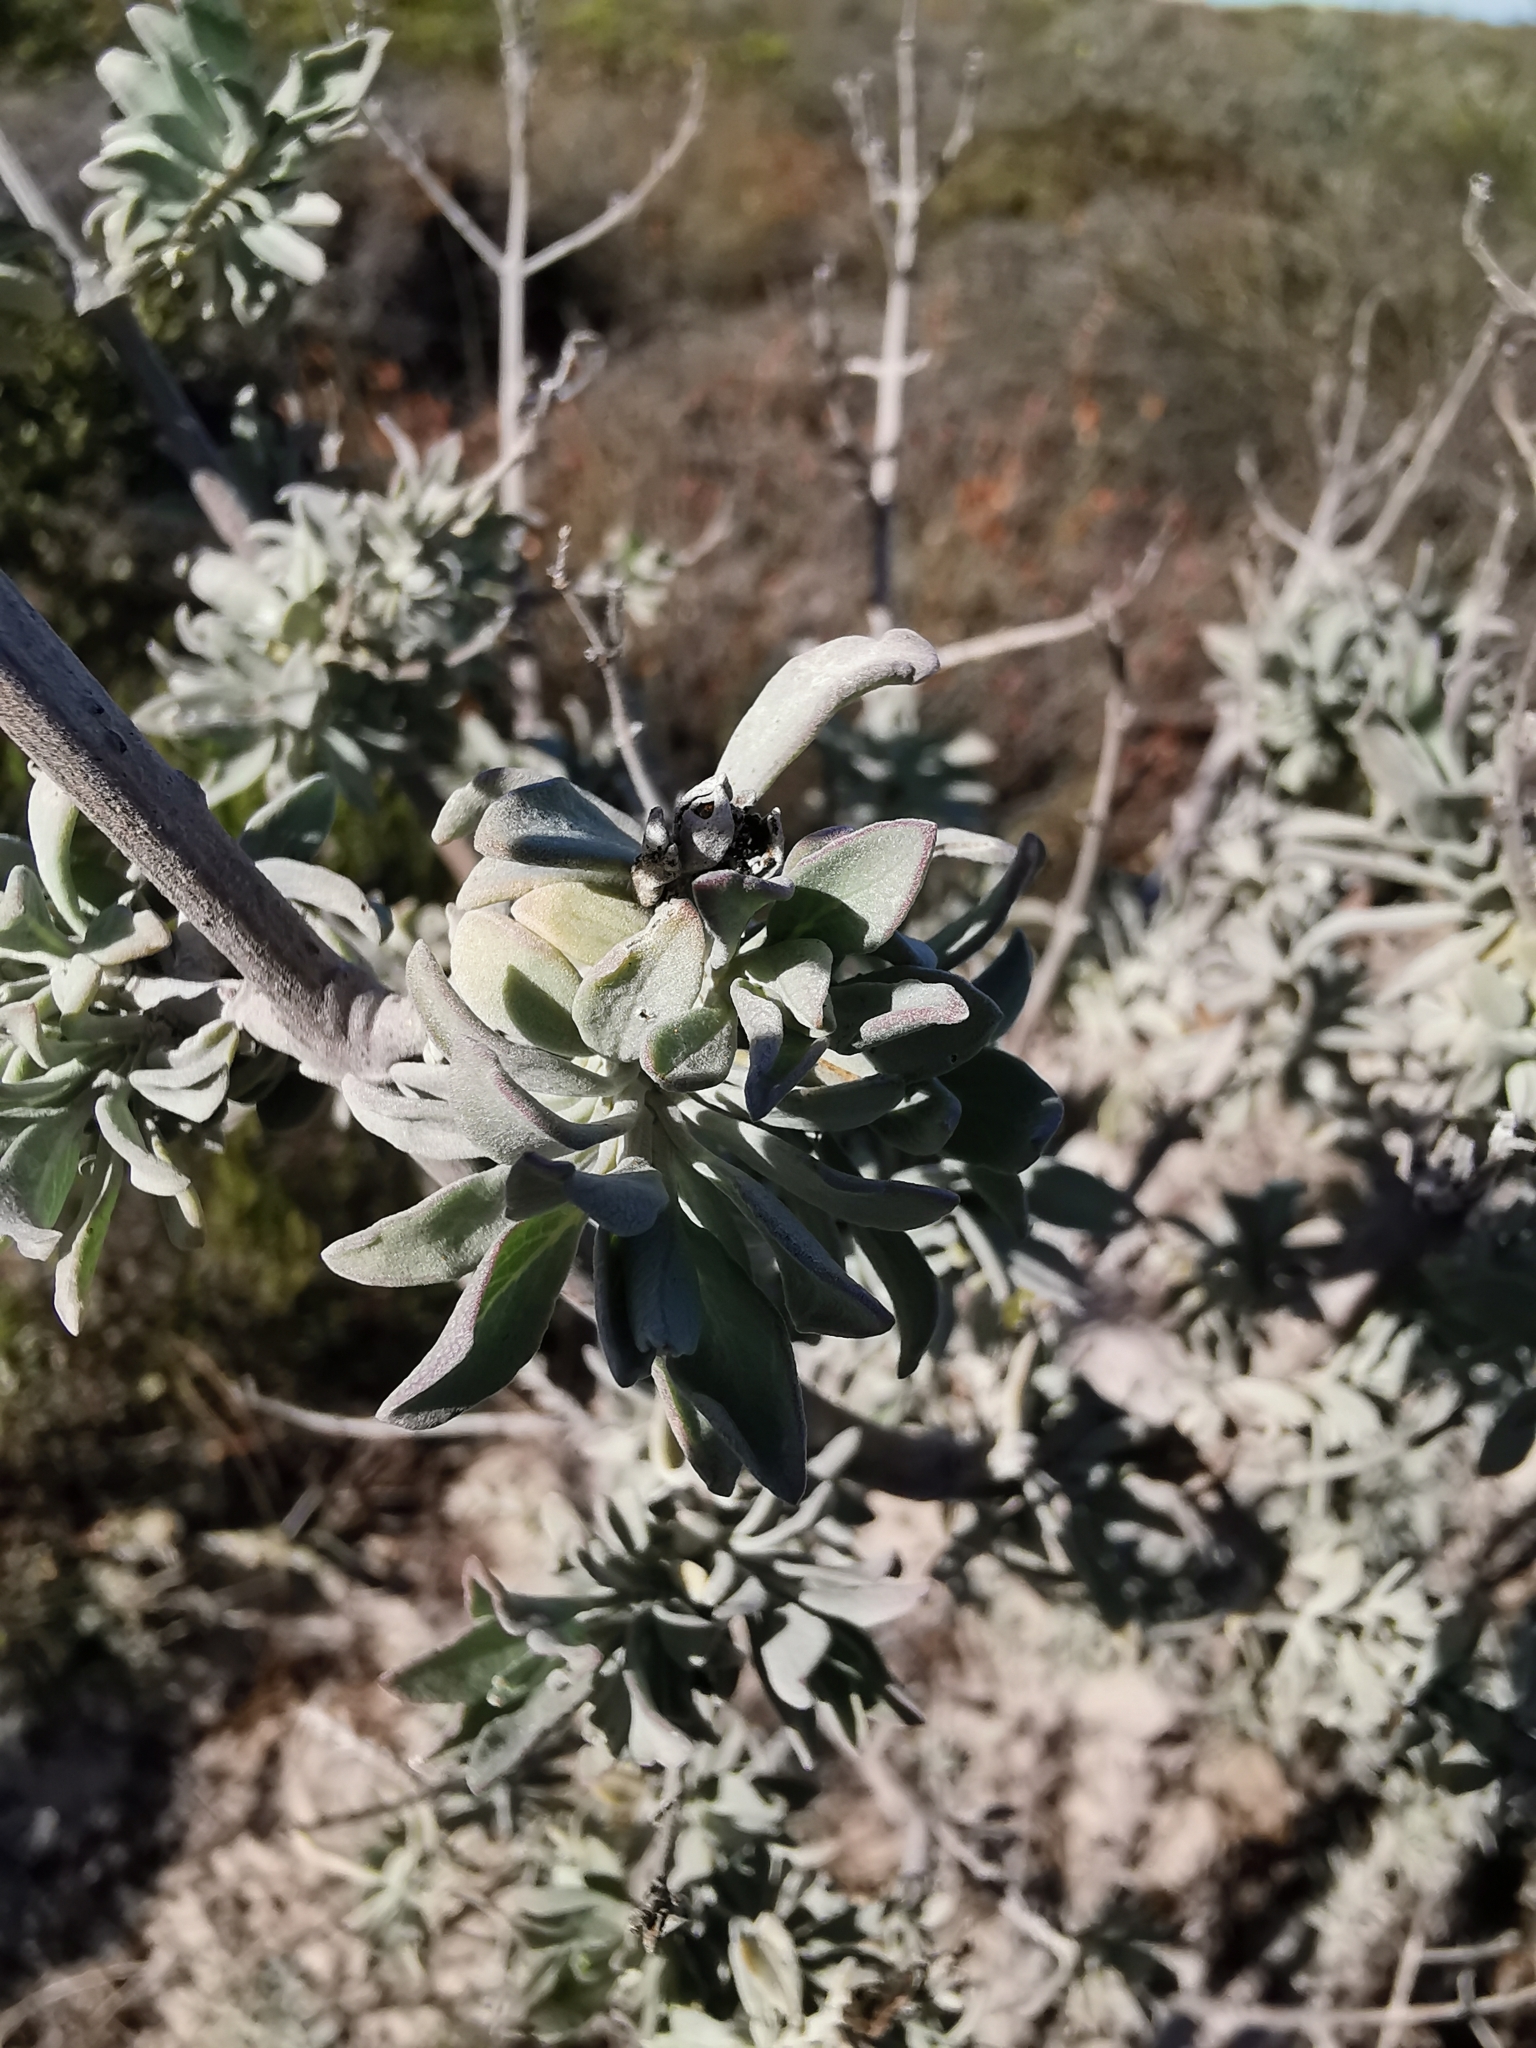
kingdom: Plantae
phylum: Tracheophyta
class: Magnoliopsida
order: Lamiales
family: Lamiaceae
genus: Salvia
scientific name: Salvia lanceolata
